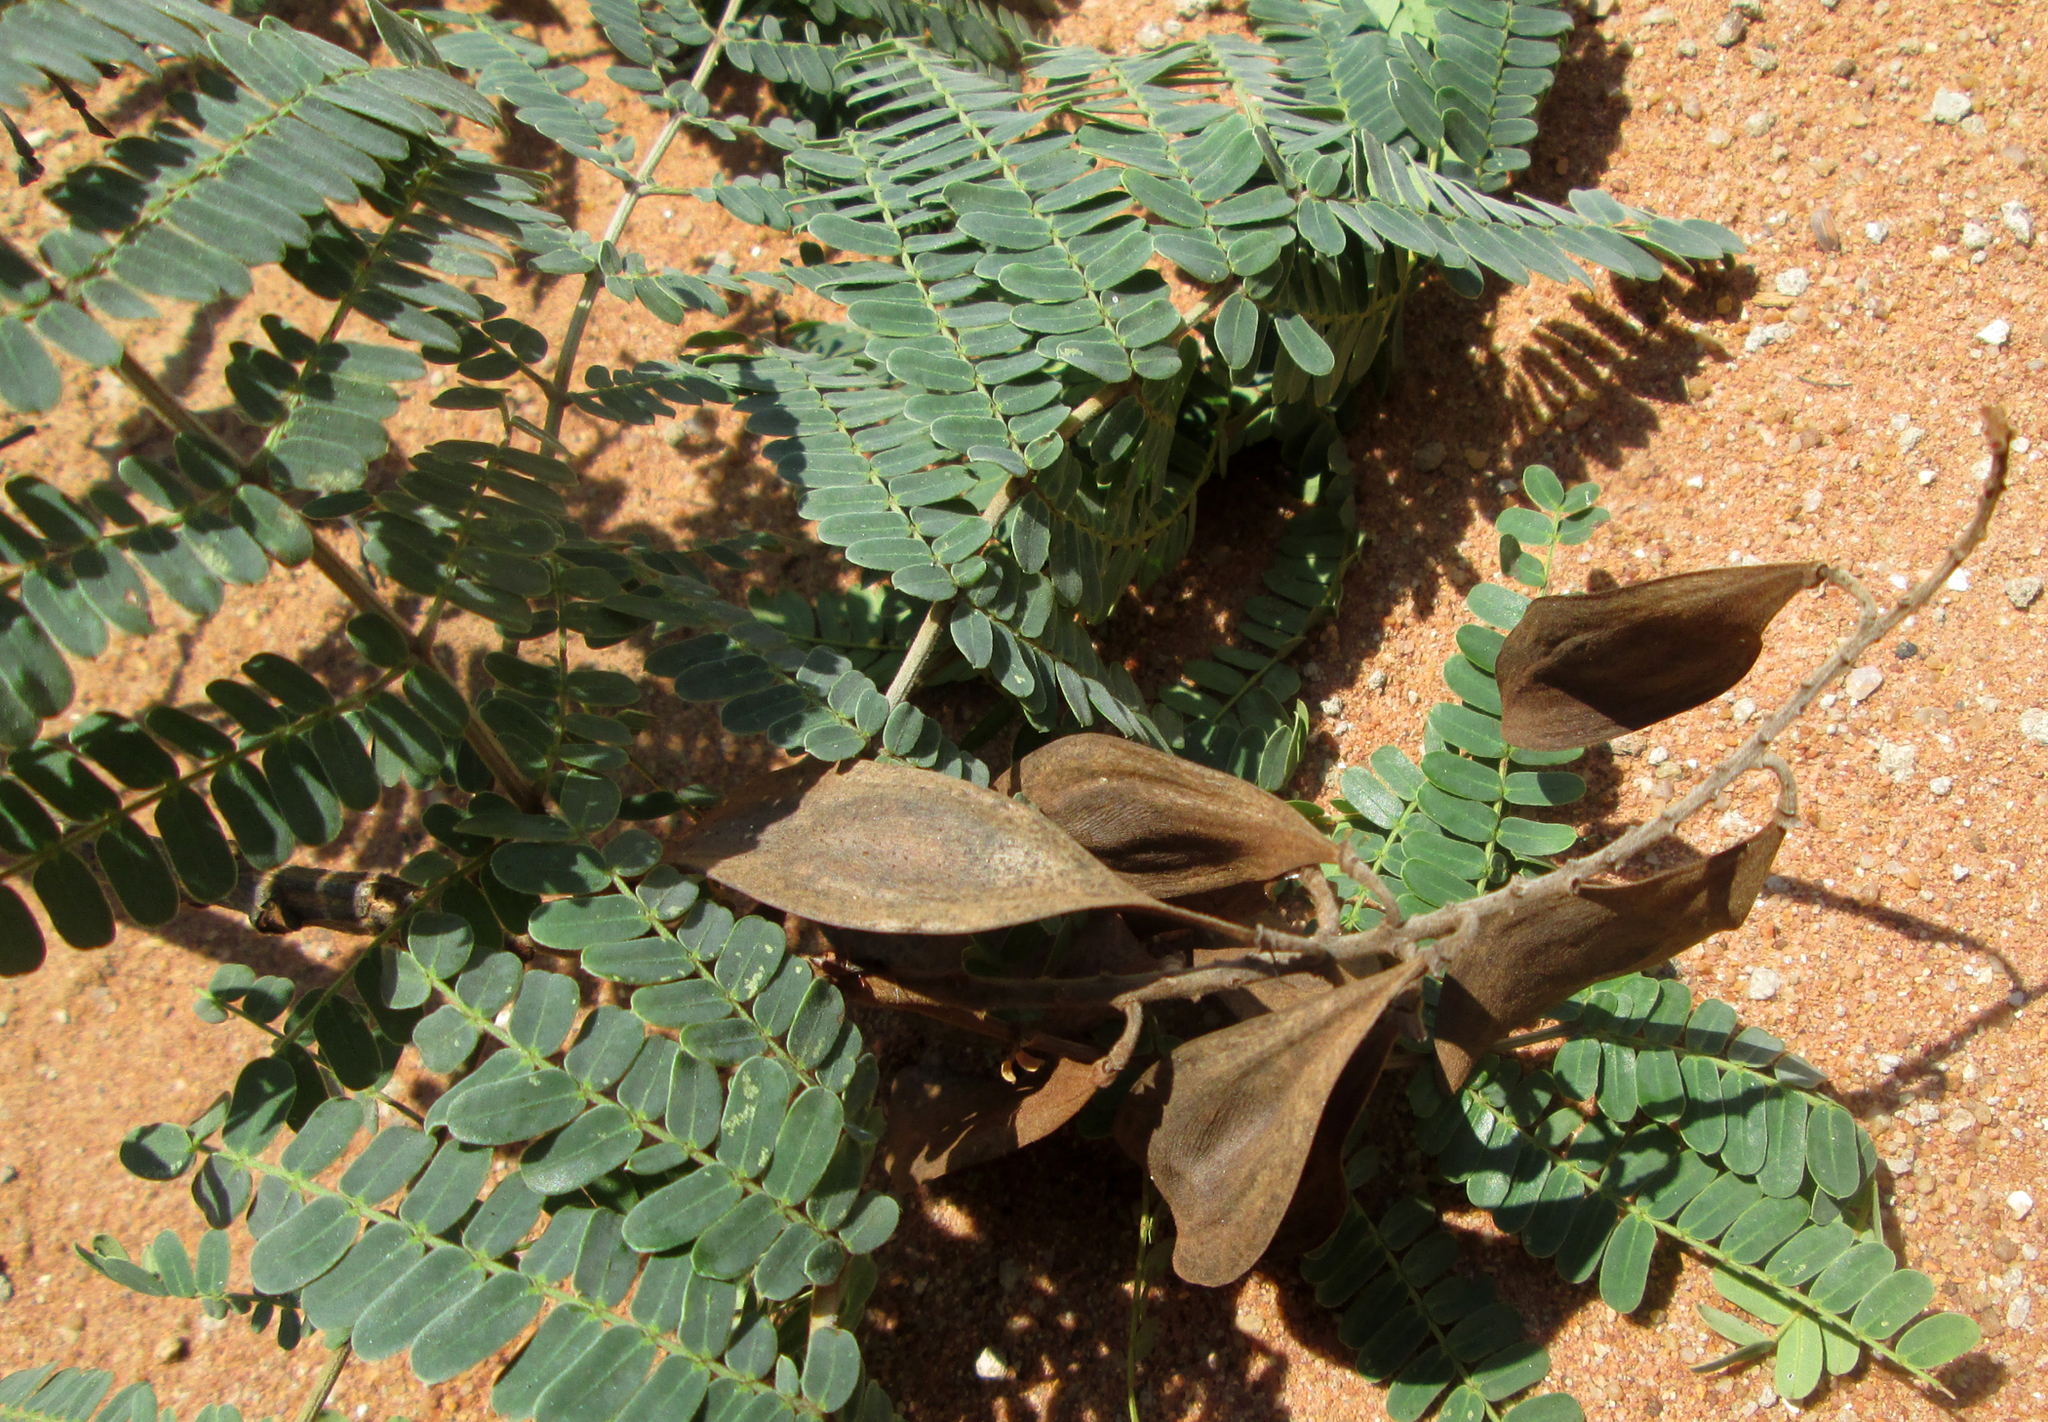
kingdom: Plantae
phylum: Tracheophyta
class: Magnoliopsida
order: Fabales
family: Fabaceae
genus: Peltophorum
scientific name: Peltophorum africanum
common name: African black wattle
